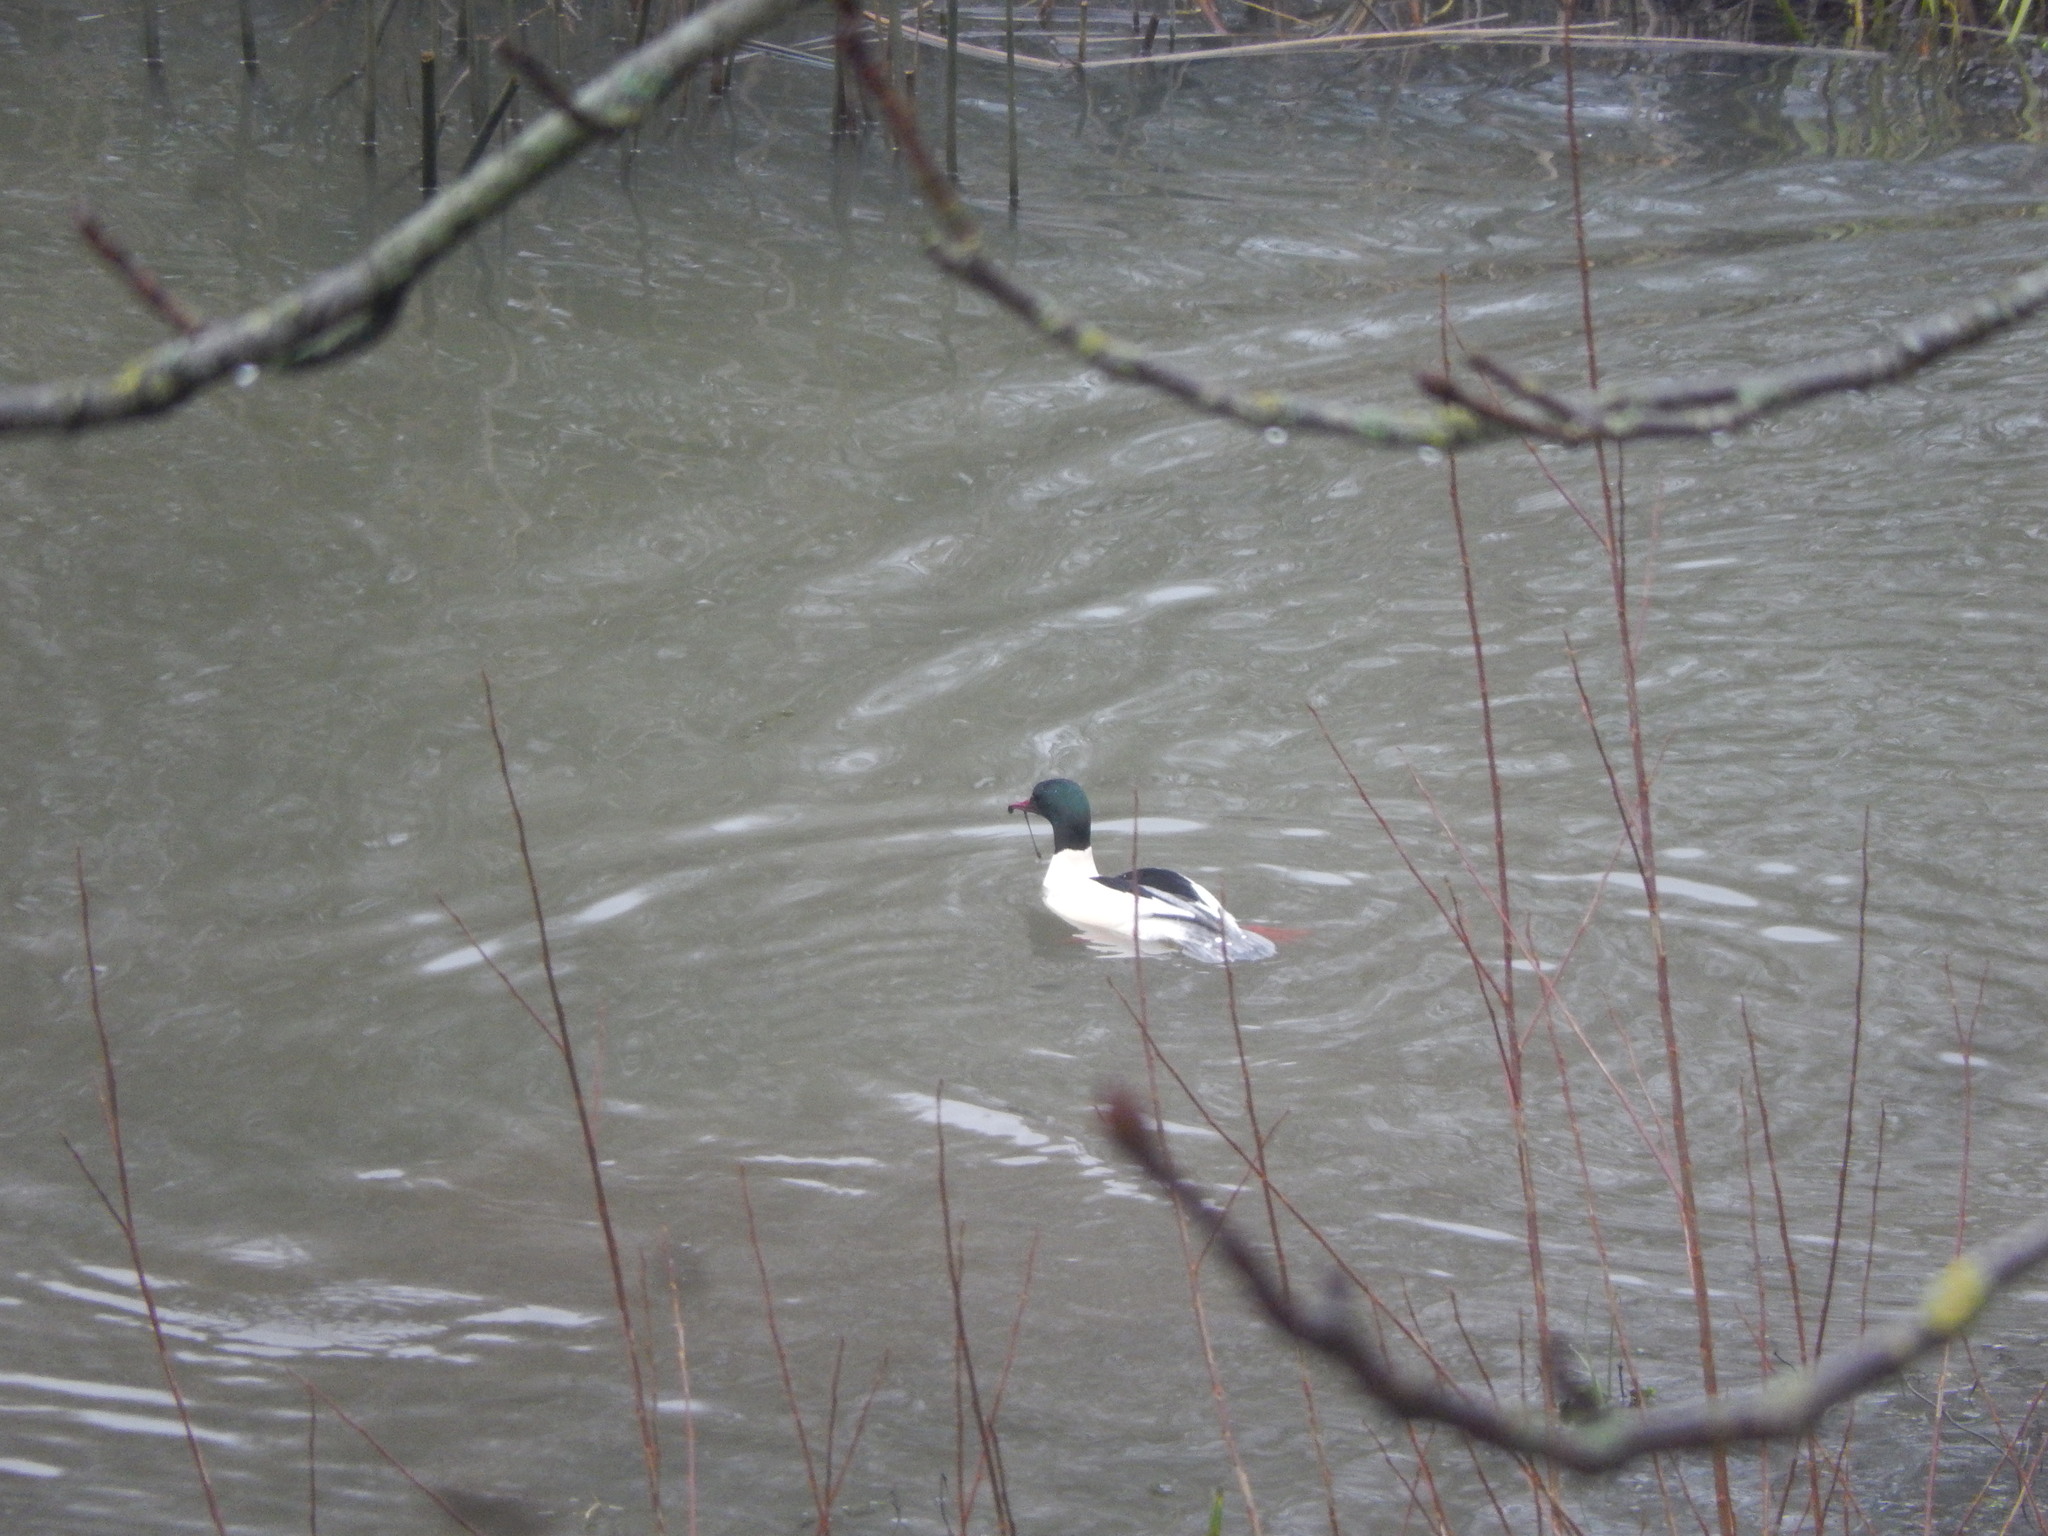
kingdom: Animalia
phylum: Chordata
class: Aves
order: Anseriformes
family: Anatidae
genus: Mergus
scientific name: Mergus merganser
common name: Common merganser
